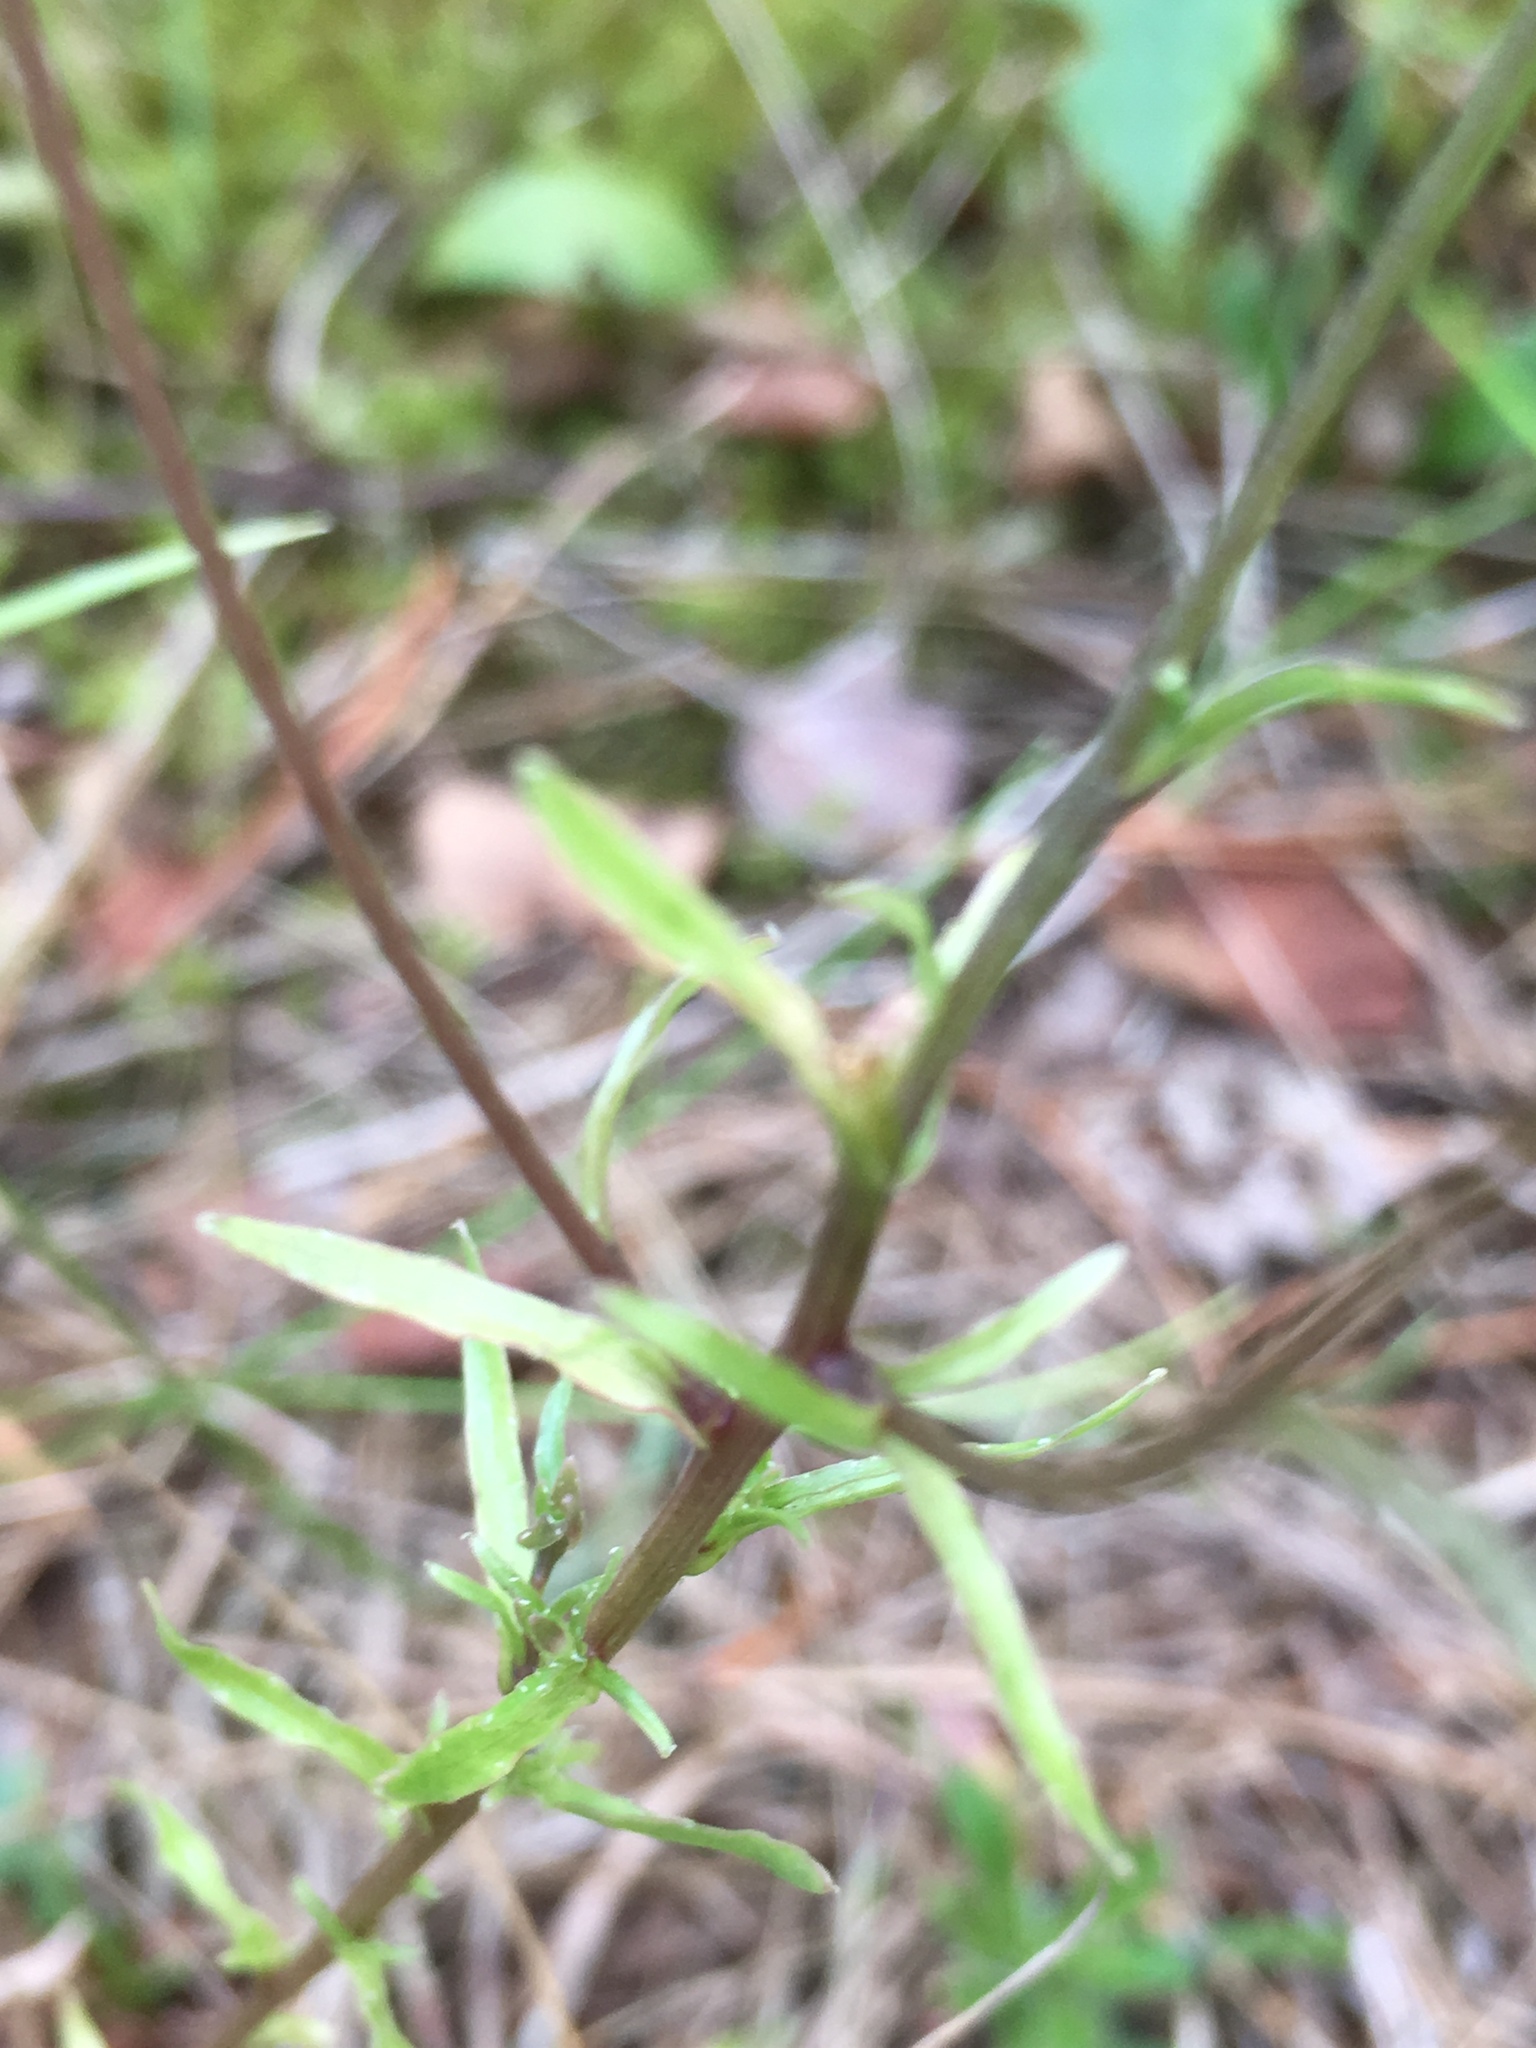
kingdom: Plantae
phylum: Tracheophyta
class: Magnoliopsida
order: Asterales
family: Campanulaceae
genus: Jasione
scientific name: Jasione montana
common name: Sheep's-bit
